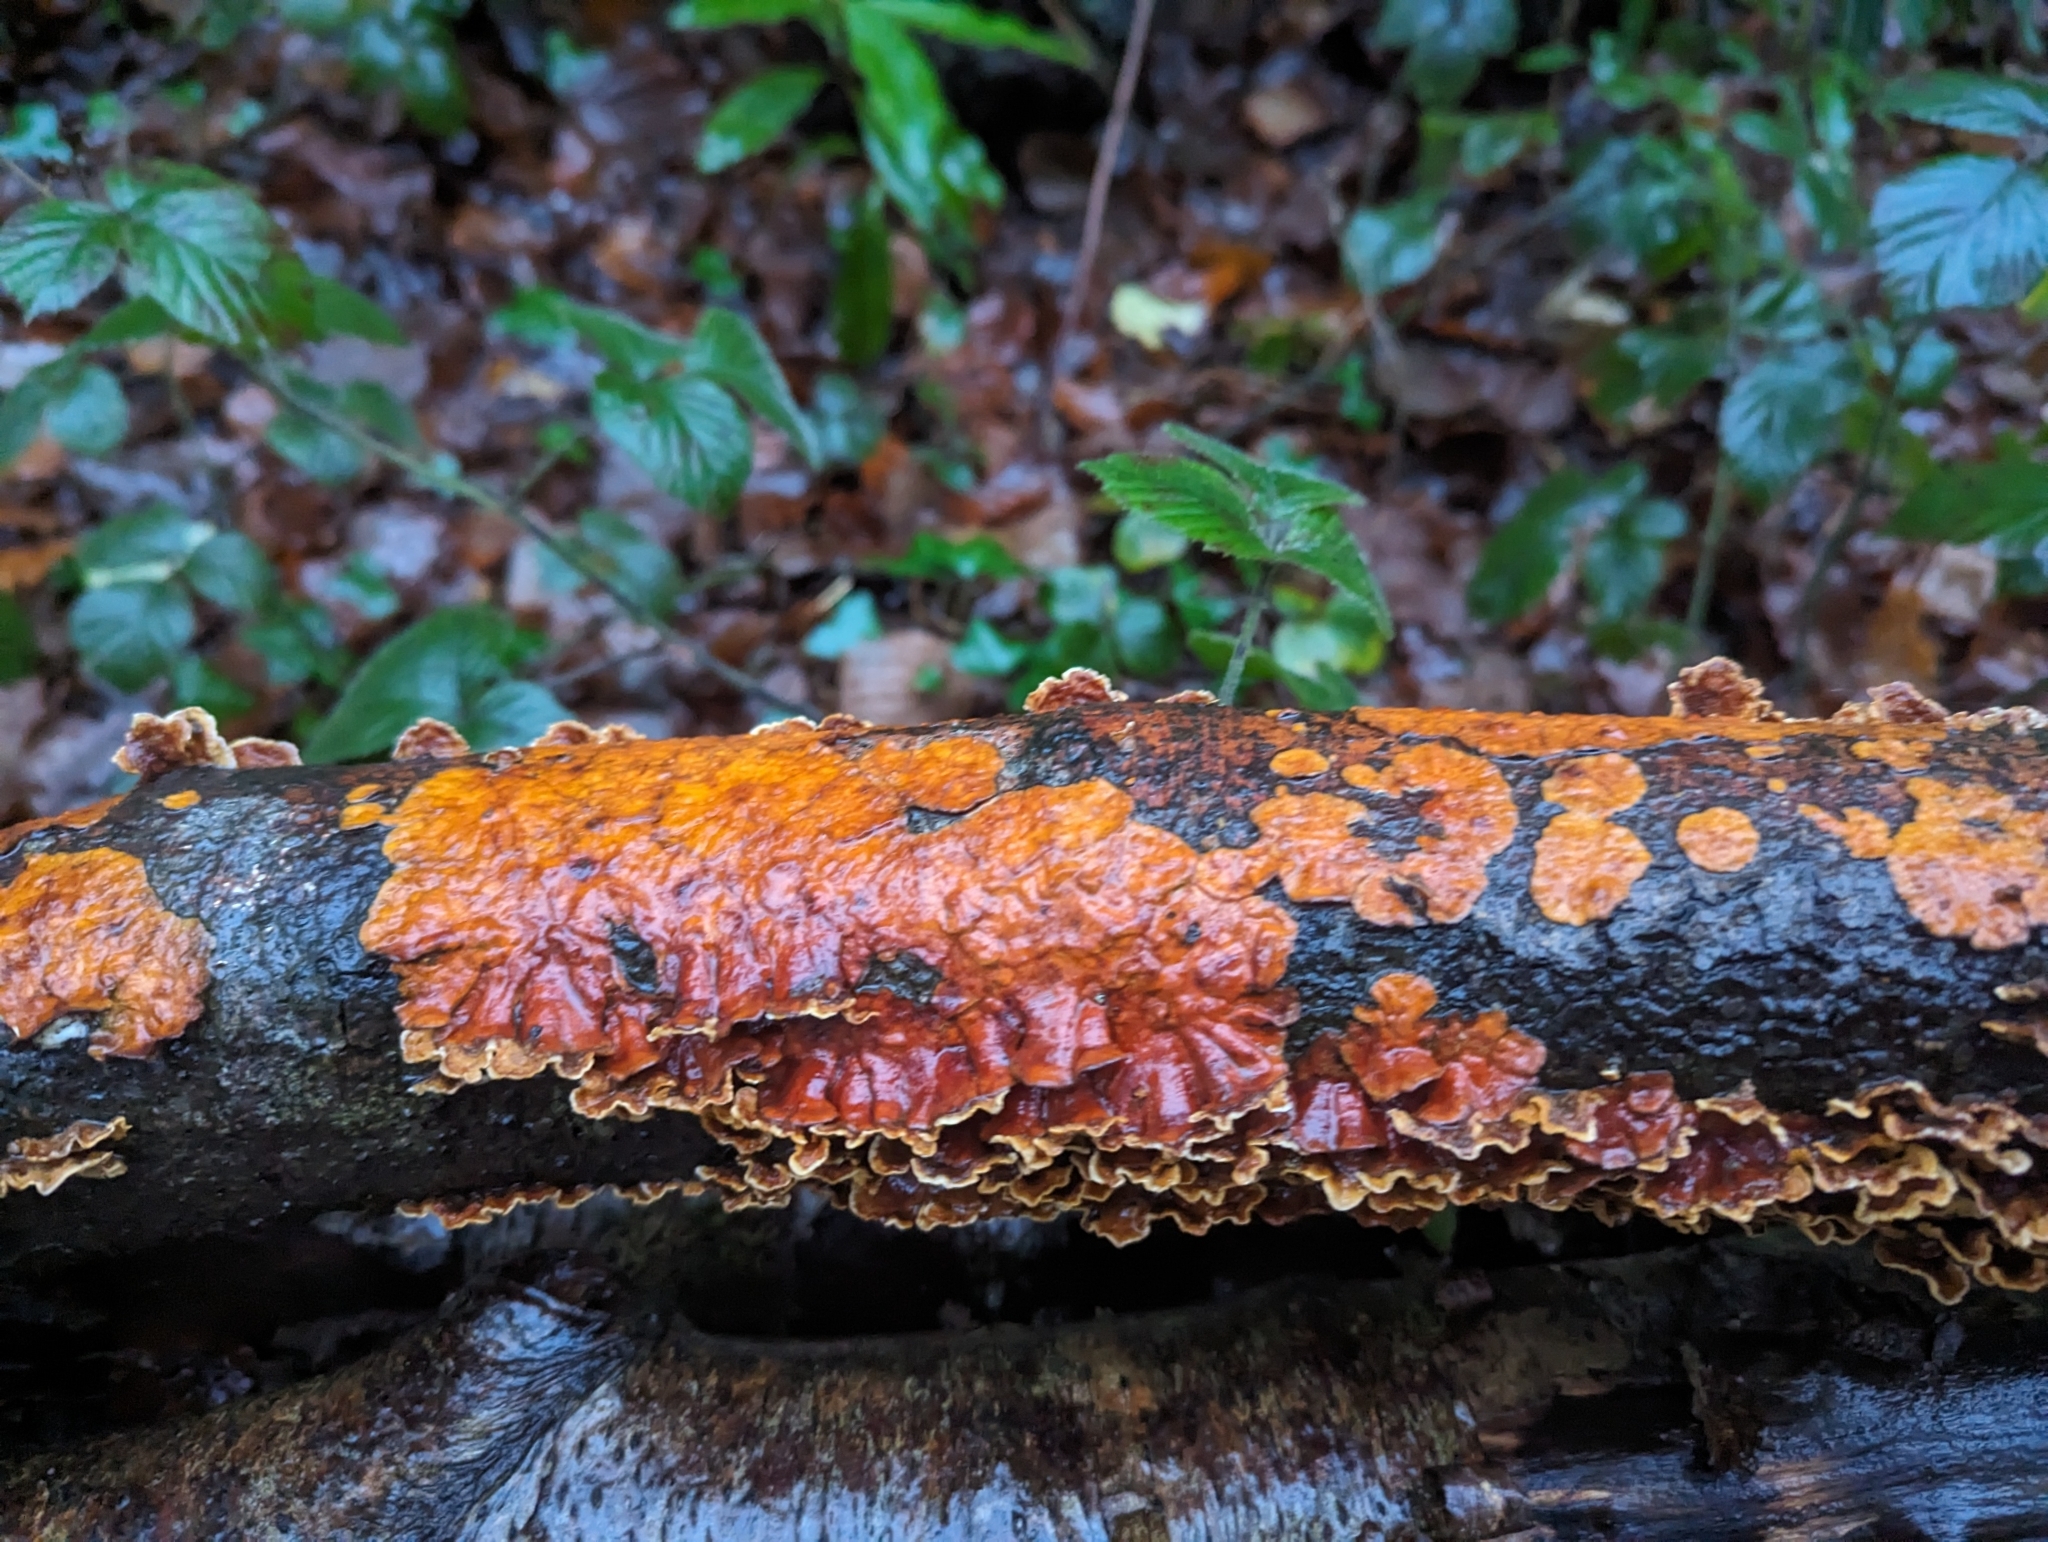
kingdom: Fungi
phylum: Basidiomycota
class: Agaricomycetes
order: Russulales
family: Stereaceae
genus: Stereum
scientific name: Stereum hirsutum
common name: Hairy curtain crust
